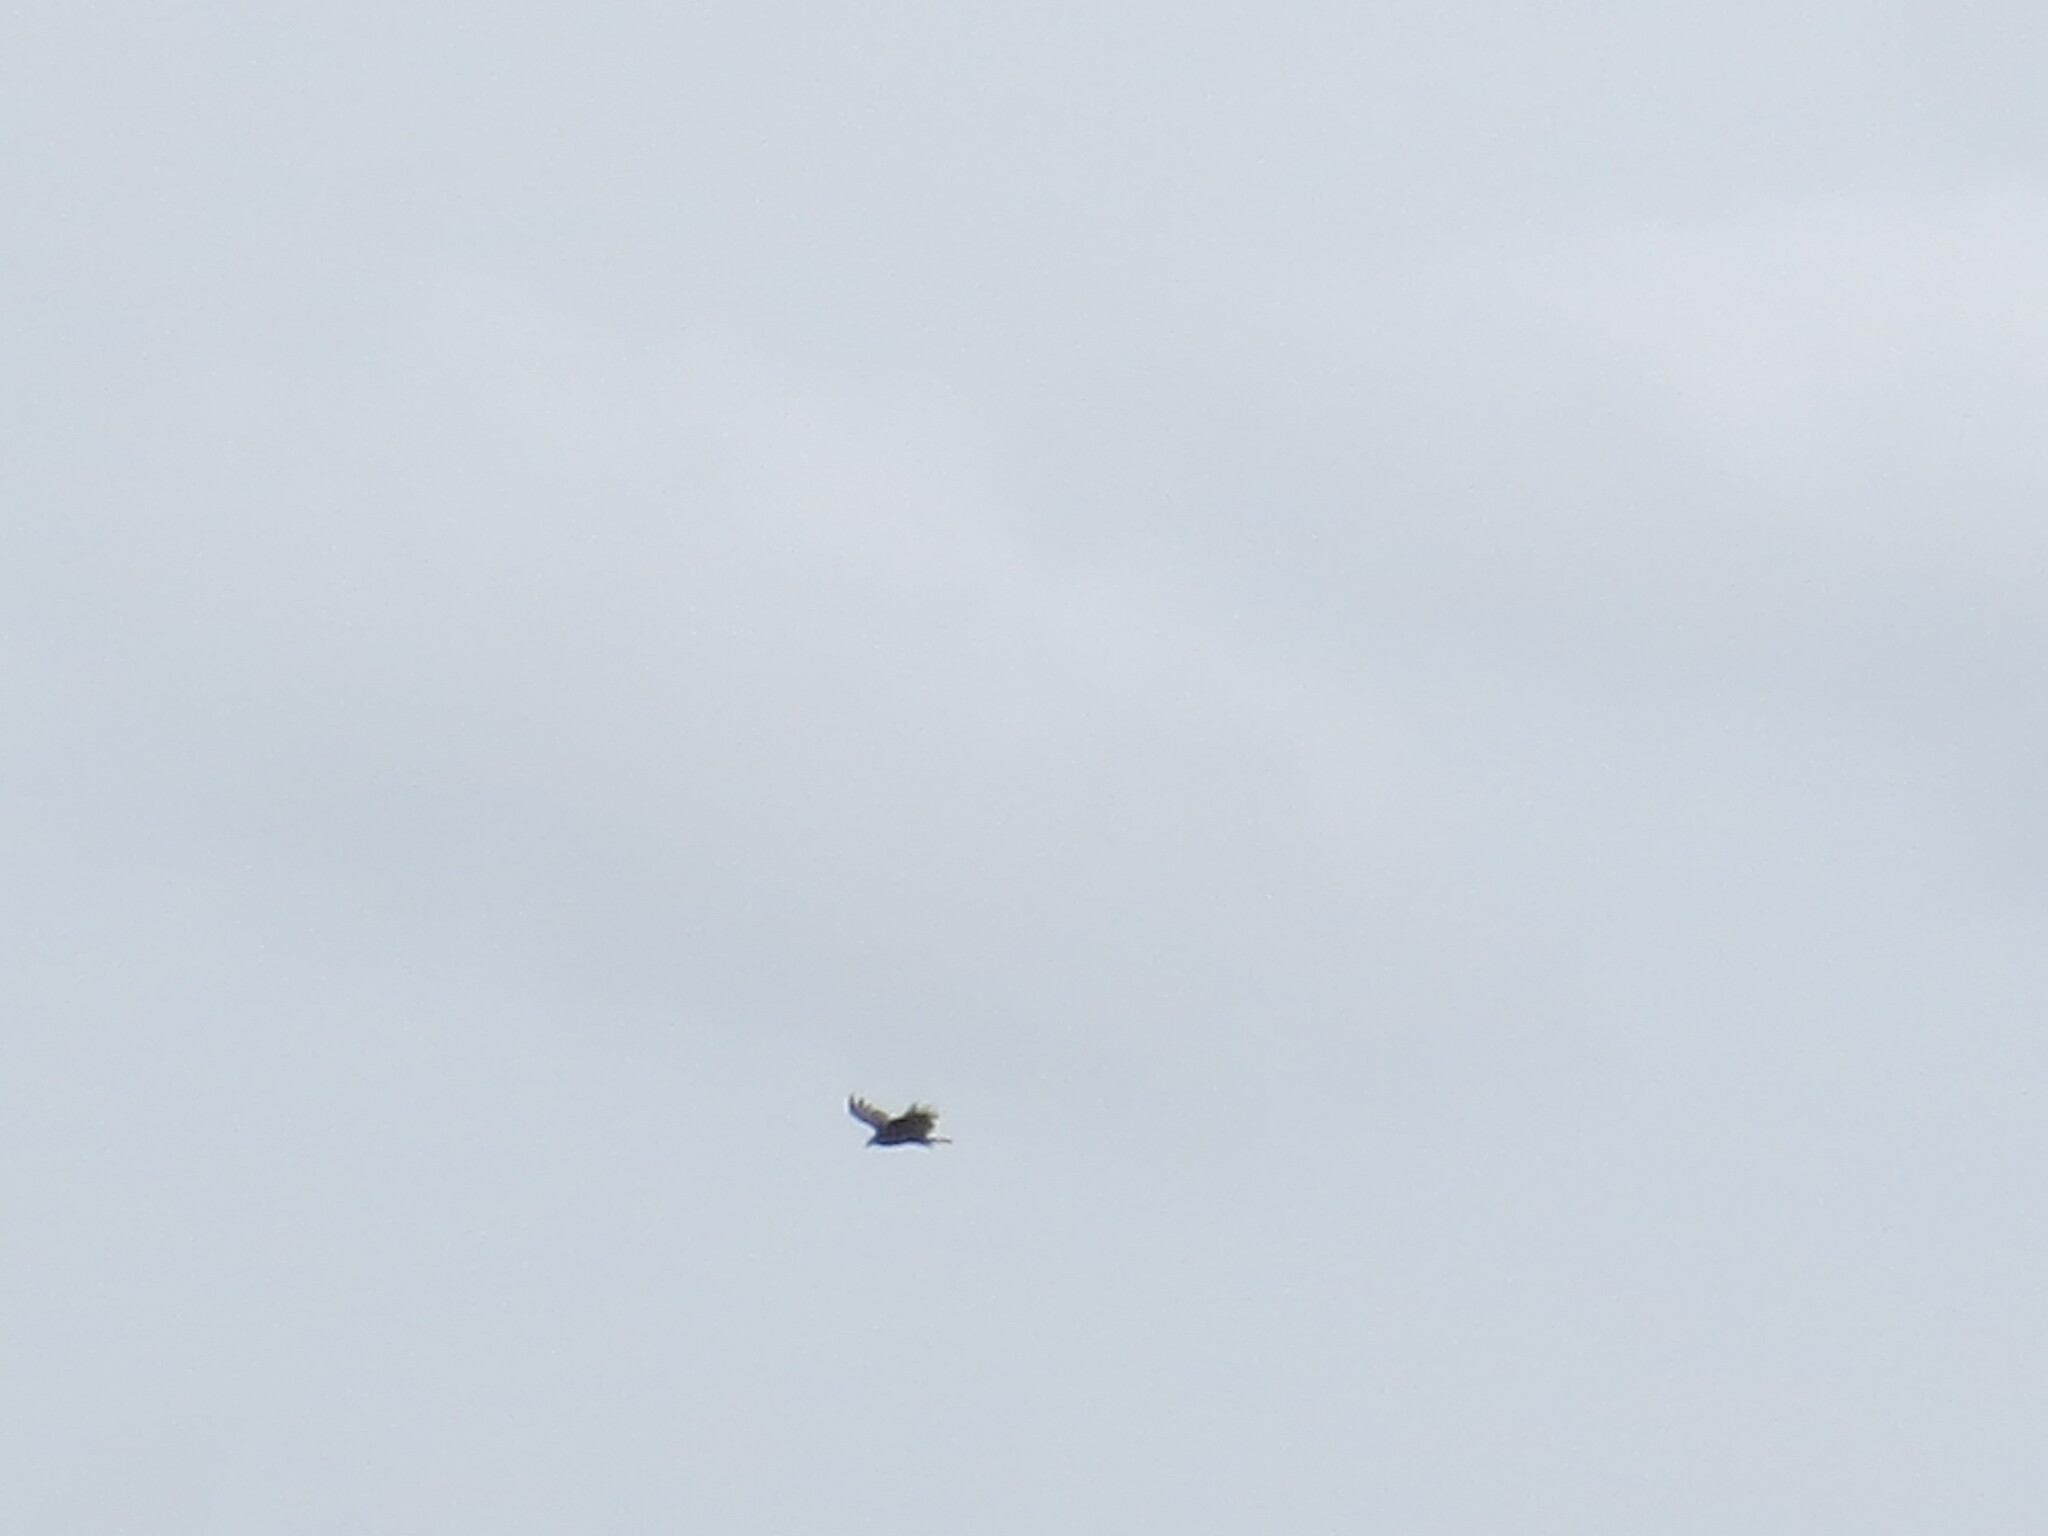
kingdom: Animalia
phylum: Chordata
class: Aves
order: Accipitriformes
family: Cathartidae
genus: Cathartes
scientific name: Cathartes aura
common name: Turkey vulture
